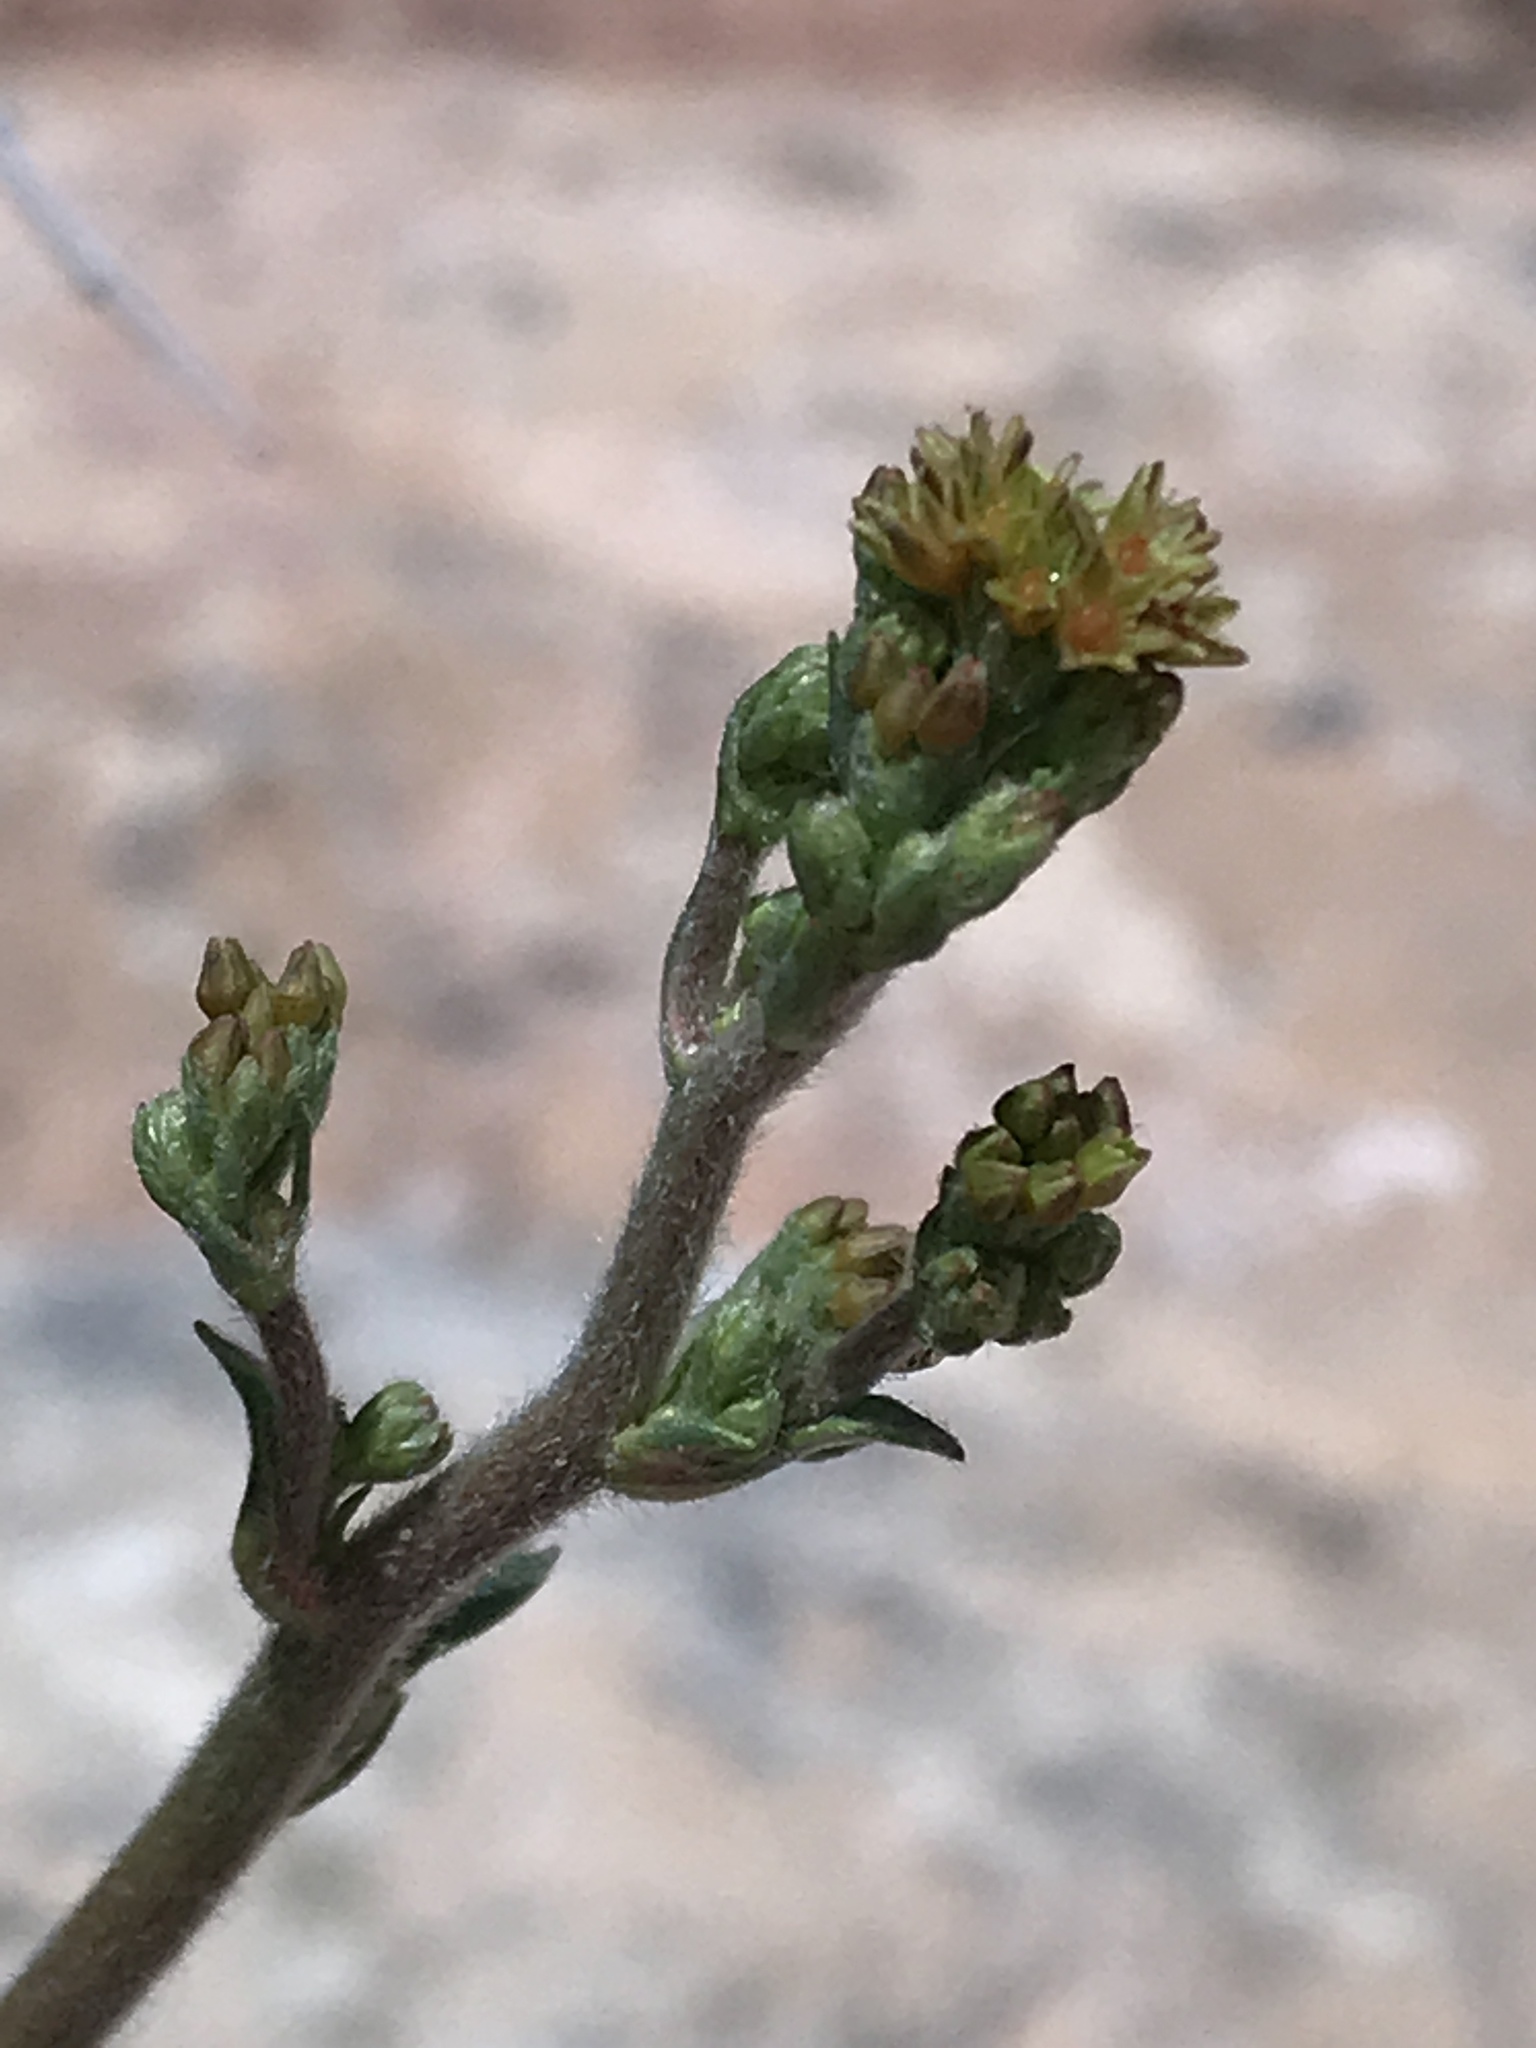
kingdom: Plantae
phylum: Tracheophyta
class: Magnoliopsida
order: Caryophyllales
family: Polygonaceae
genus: Eriogonum
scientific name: Eriogonum alatum
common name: Winged eriogonum
